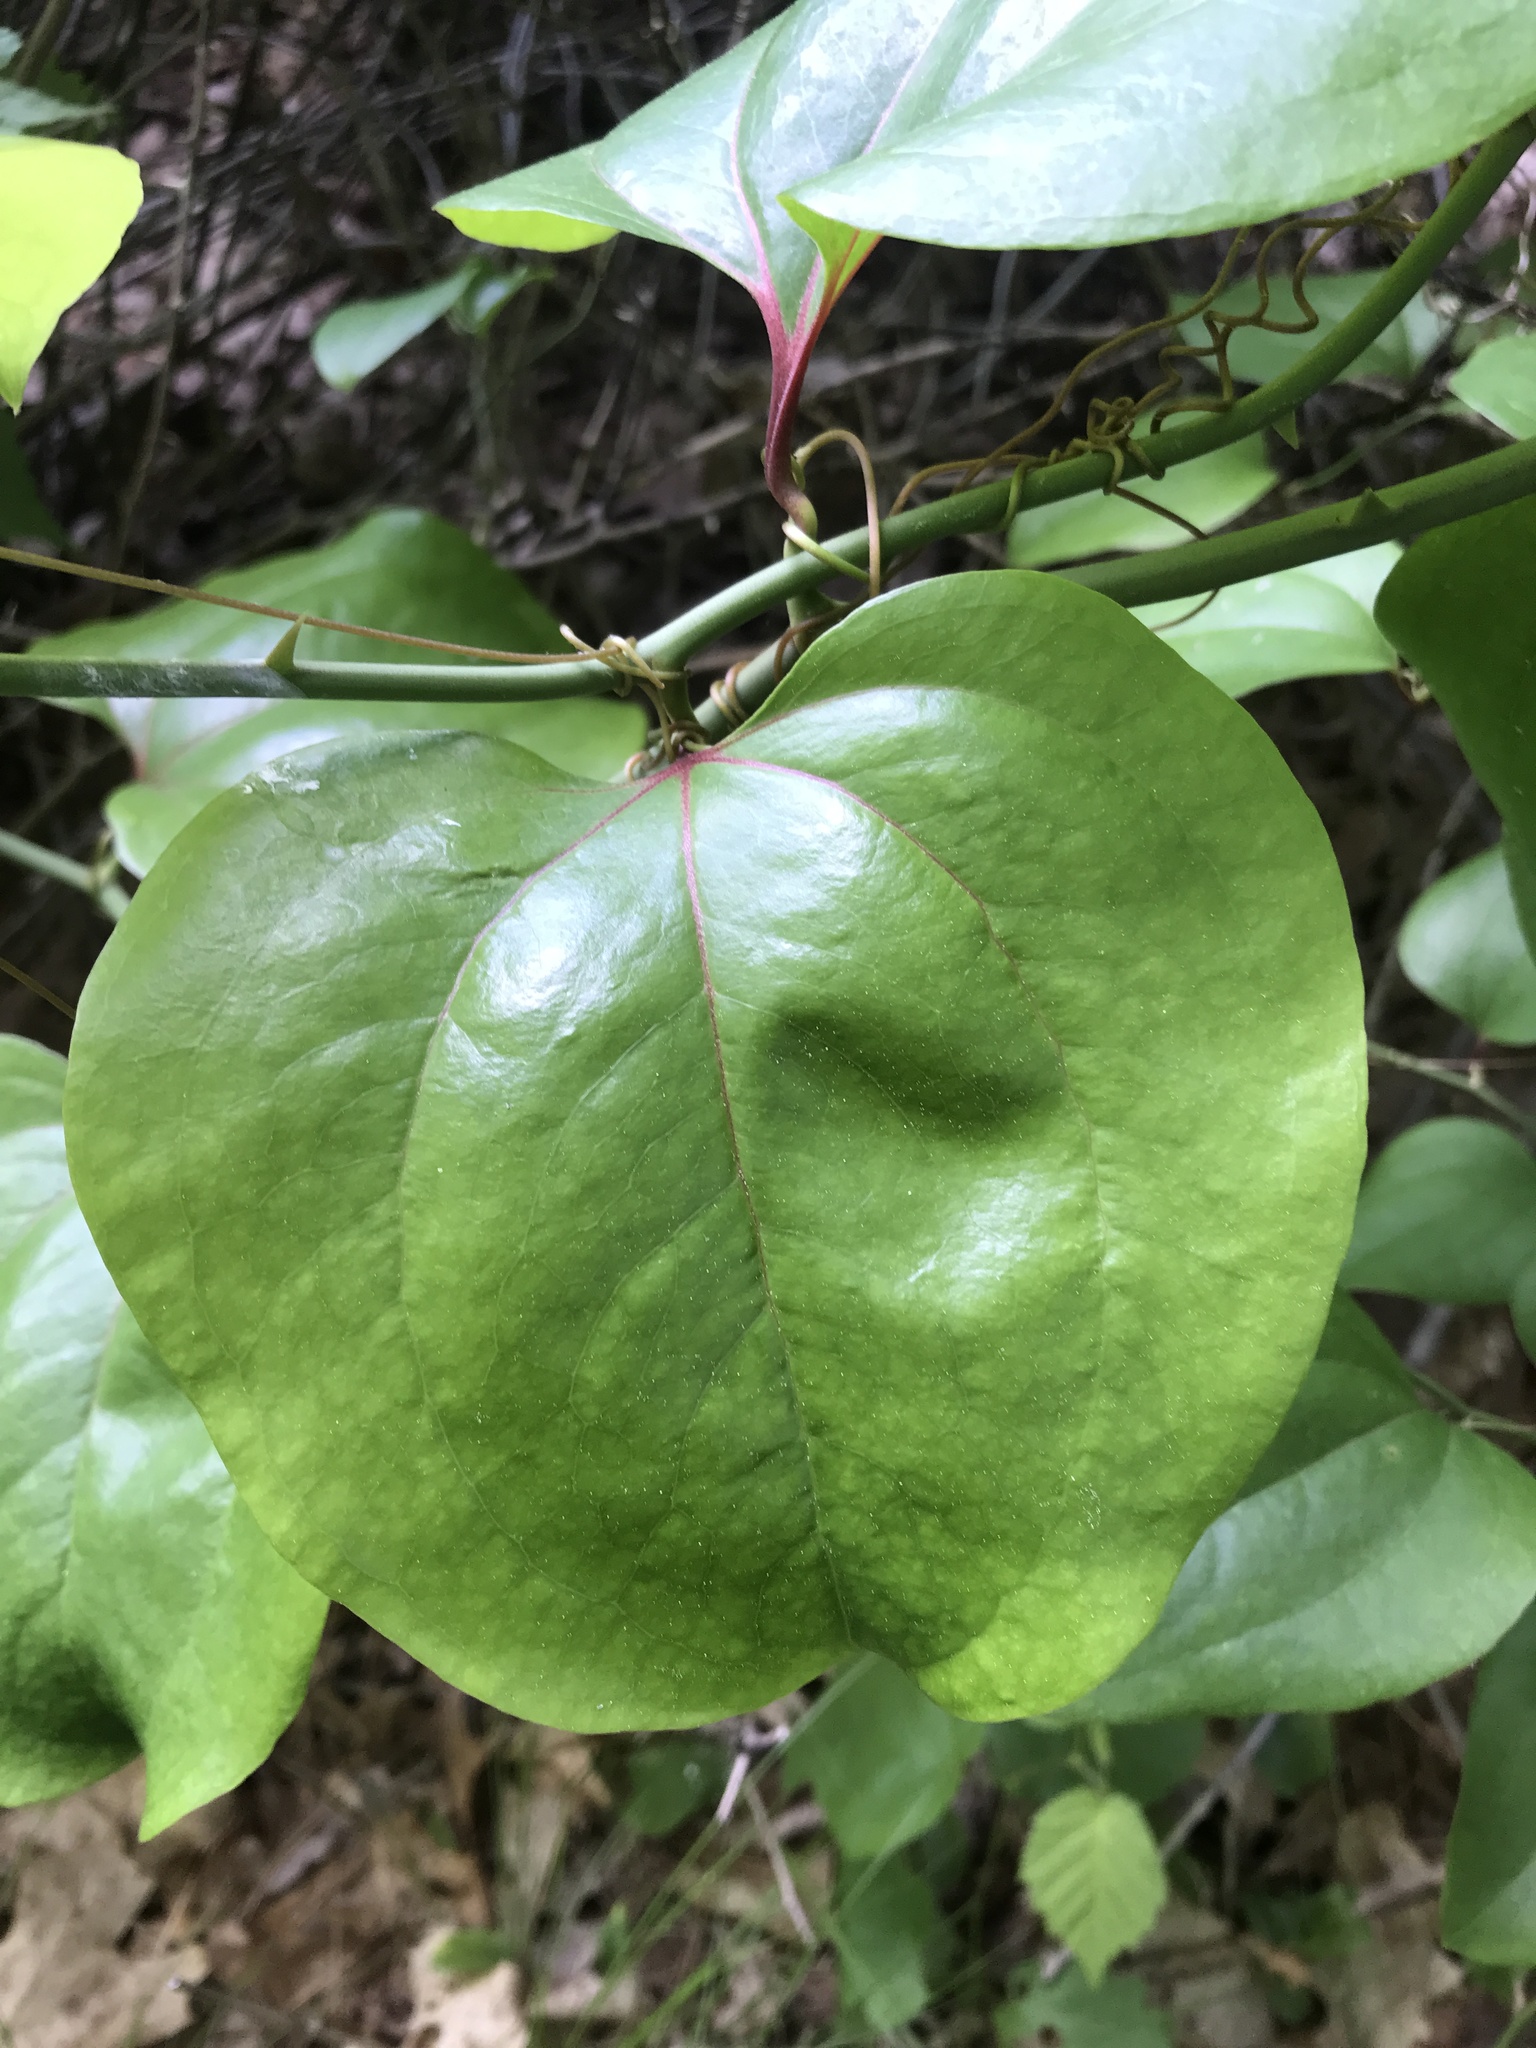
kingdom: Plantae
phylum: Tracheophyta
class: Liliopsida
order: Liliales
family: Smilacaceae
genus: Smilax
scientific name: Smilax rotundifolia
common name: Bullbriar
